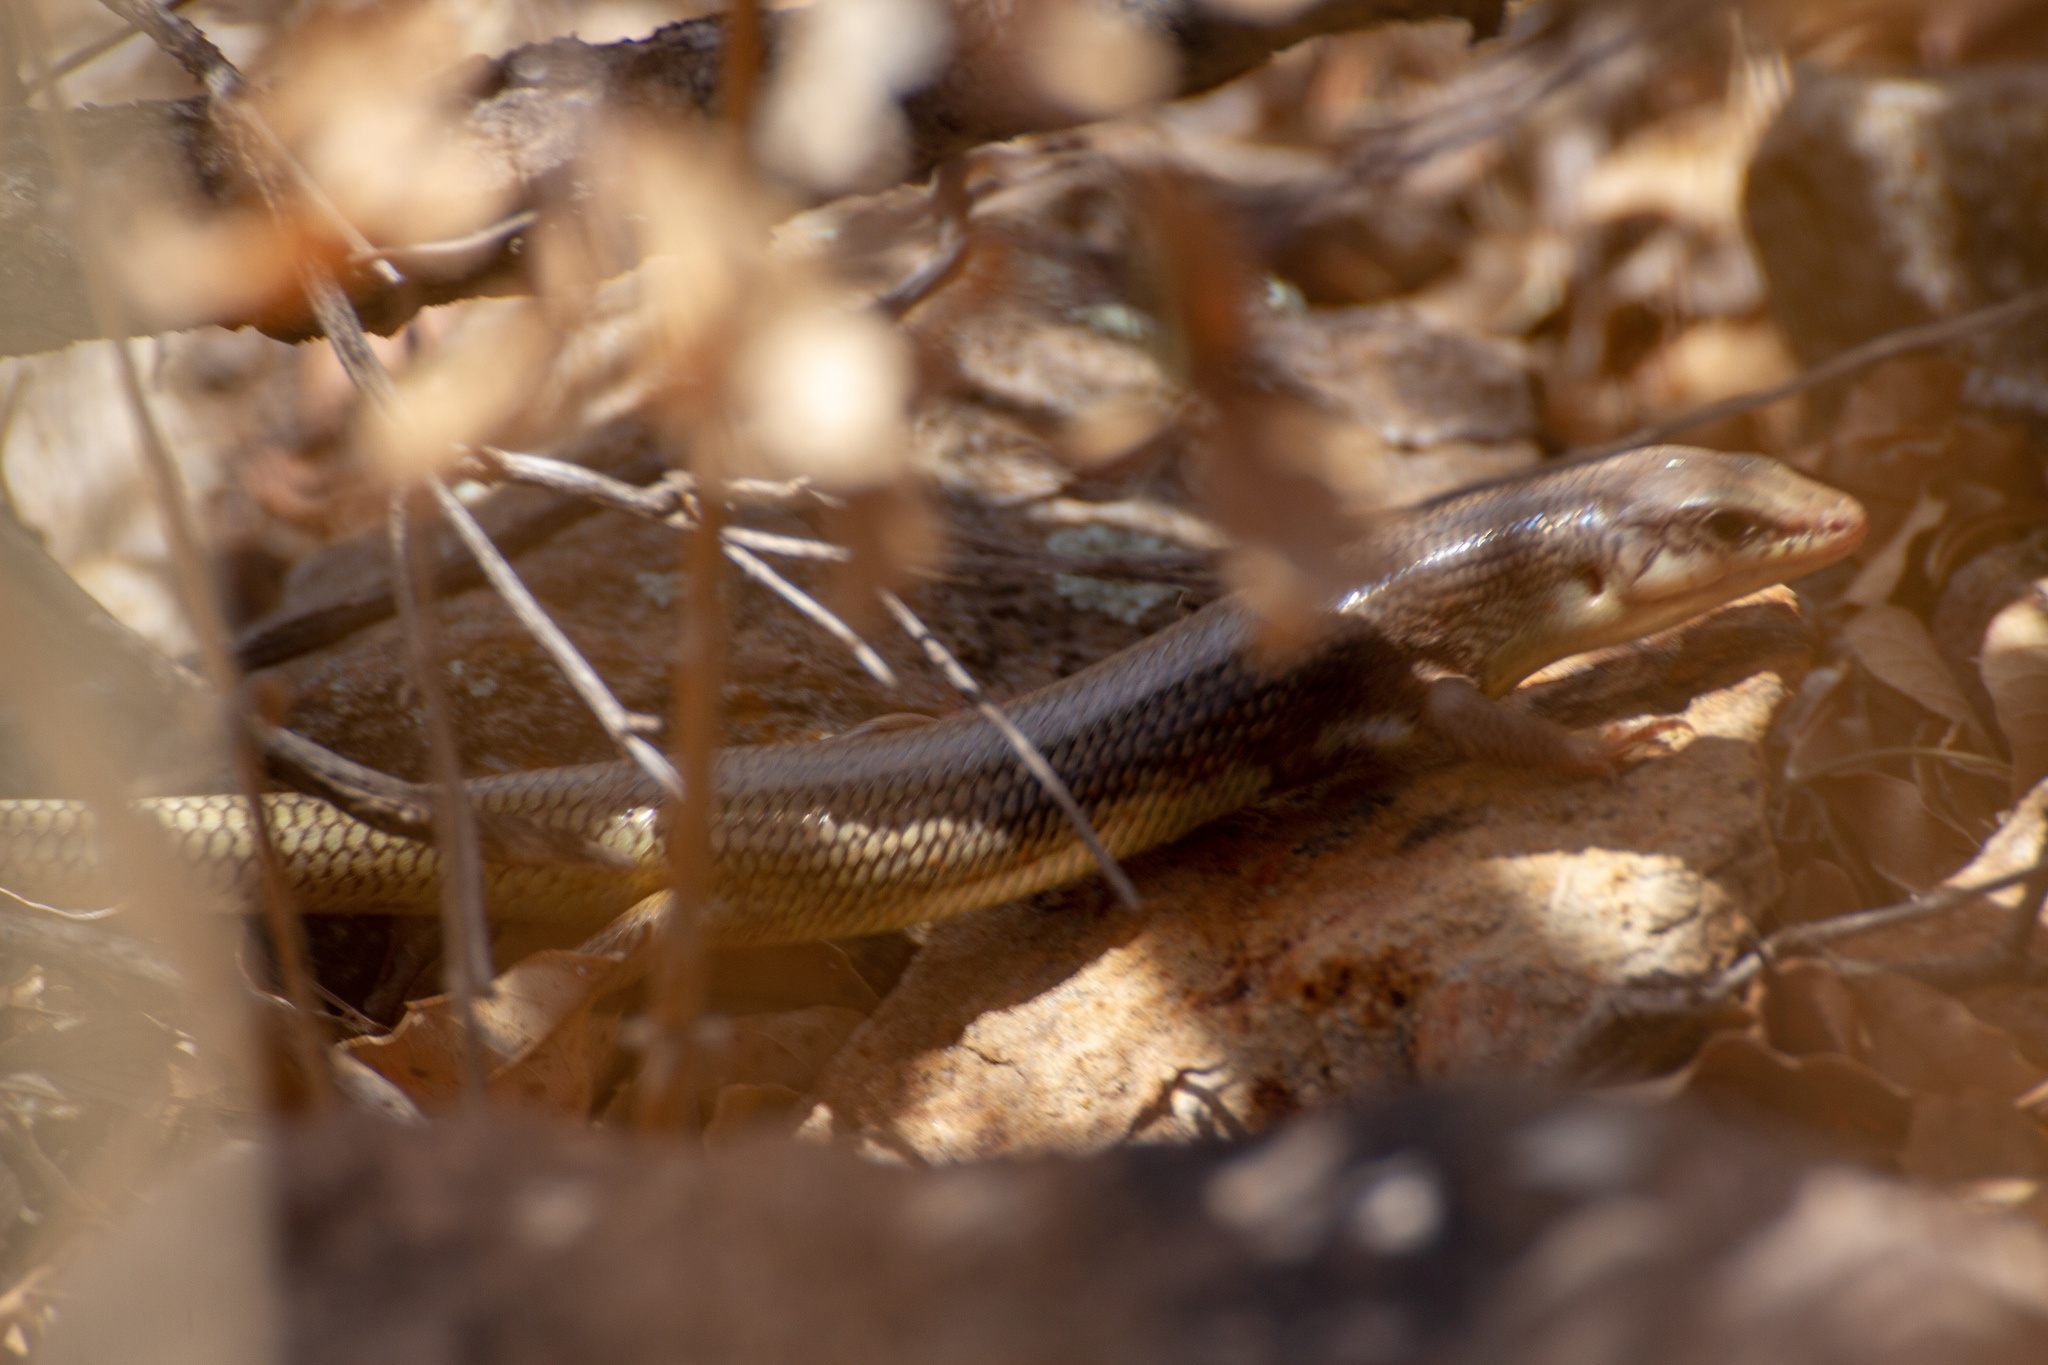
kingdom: Animalia
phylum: Chordata
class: Squamata
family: Scincidae
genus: Plestiodon
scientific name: Plestiodon obsoletus
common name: Great plains skink
